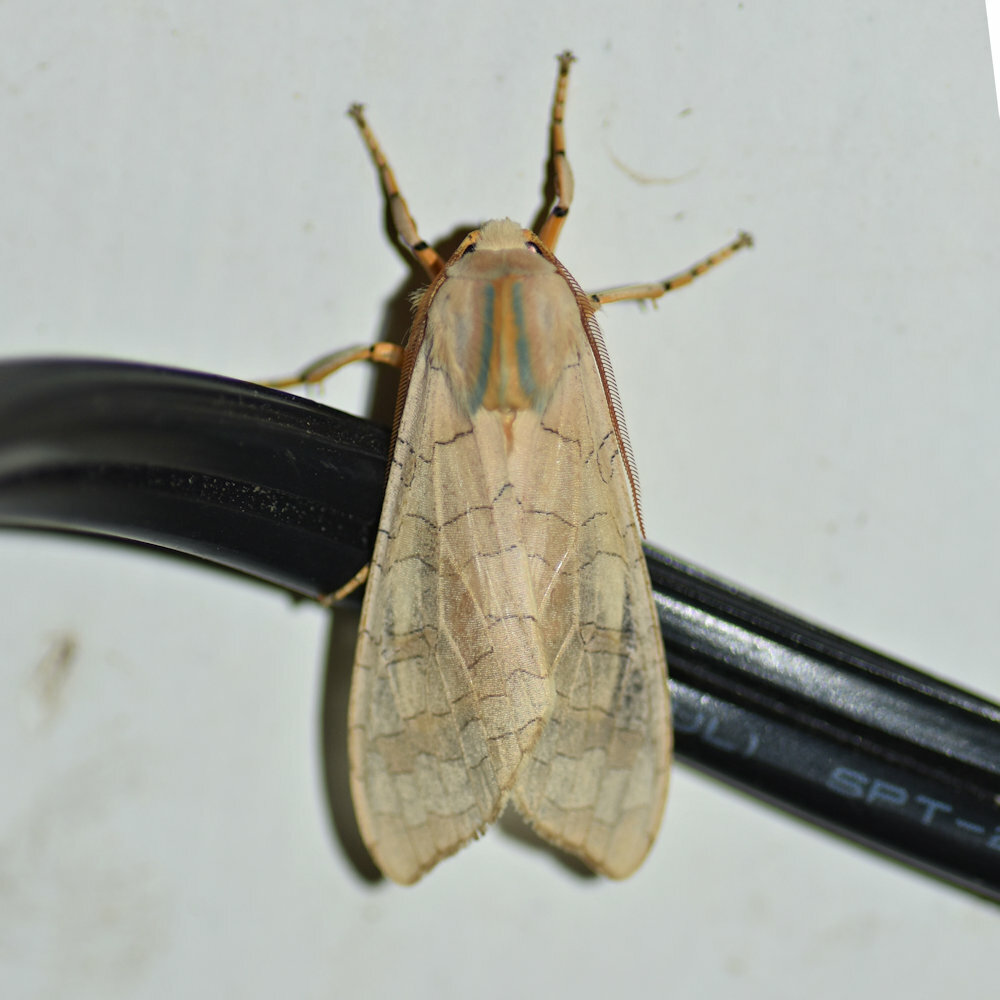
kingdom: Animalia
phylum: Arthropoda
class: Insecta
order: Lepidoptera
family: Erebidae
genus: Halysidota
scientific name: Halysidota tessellaris
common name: Banded tussock moth
